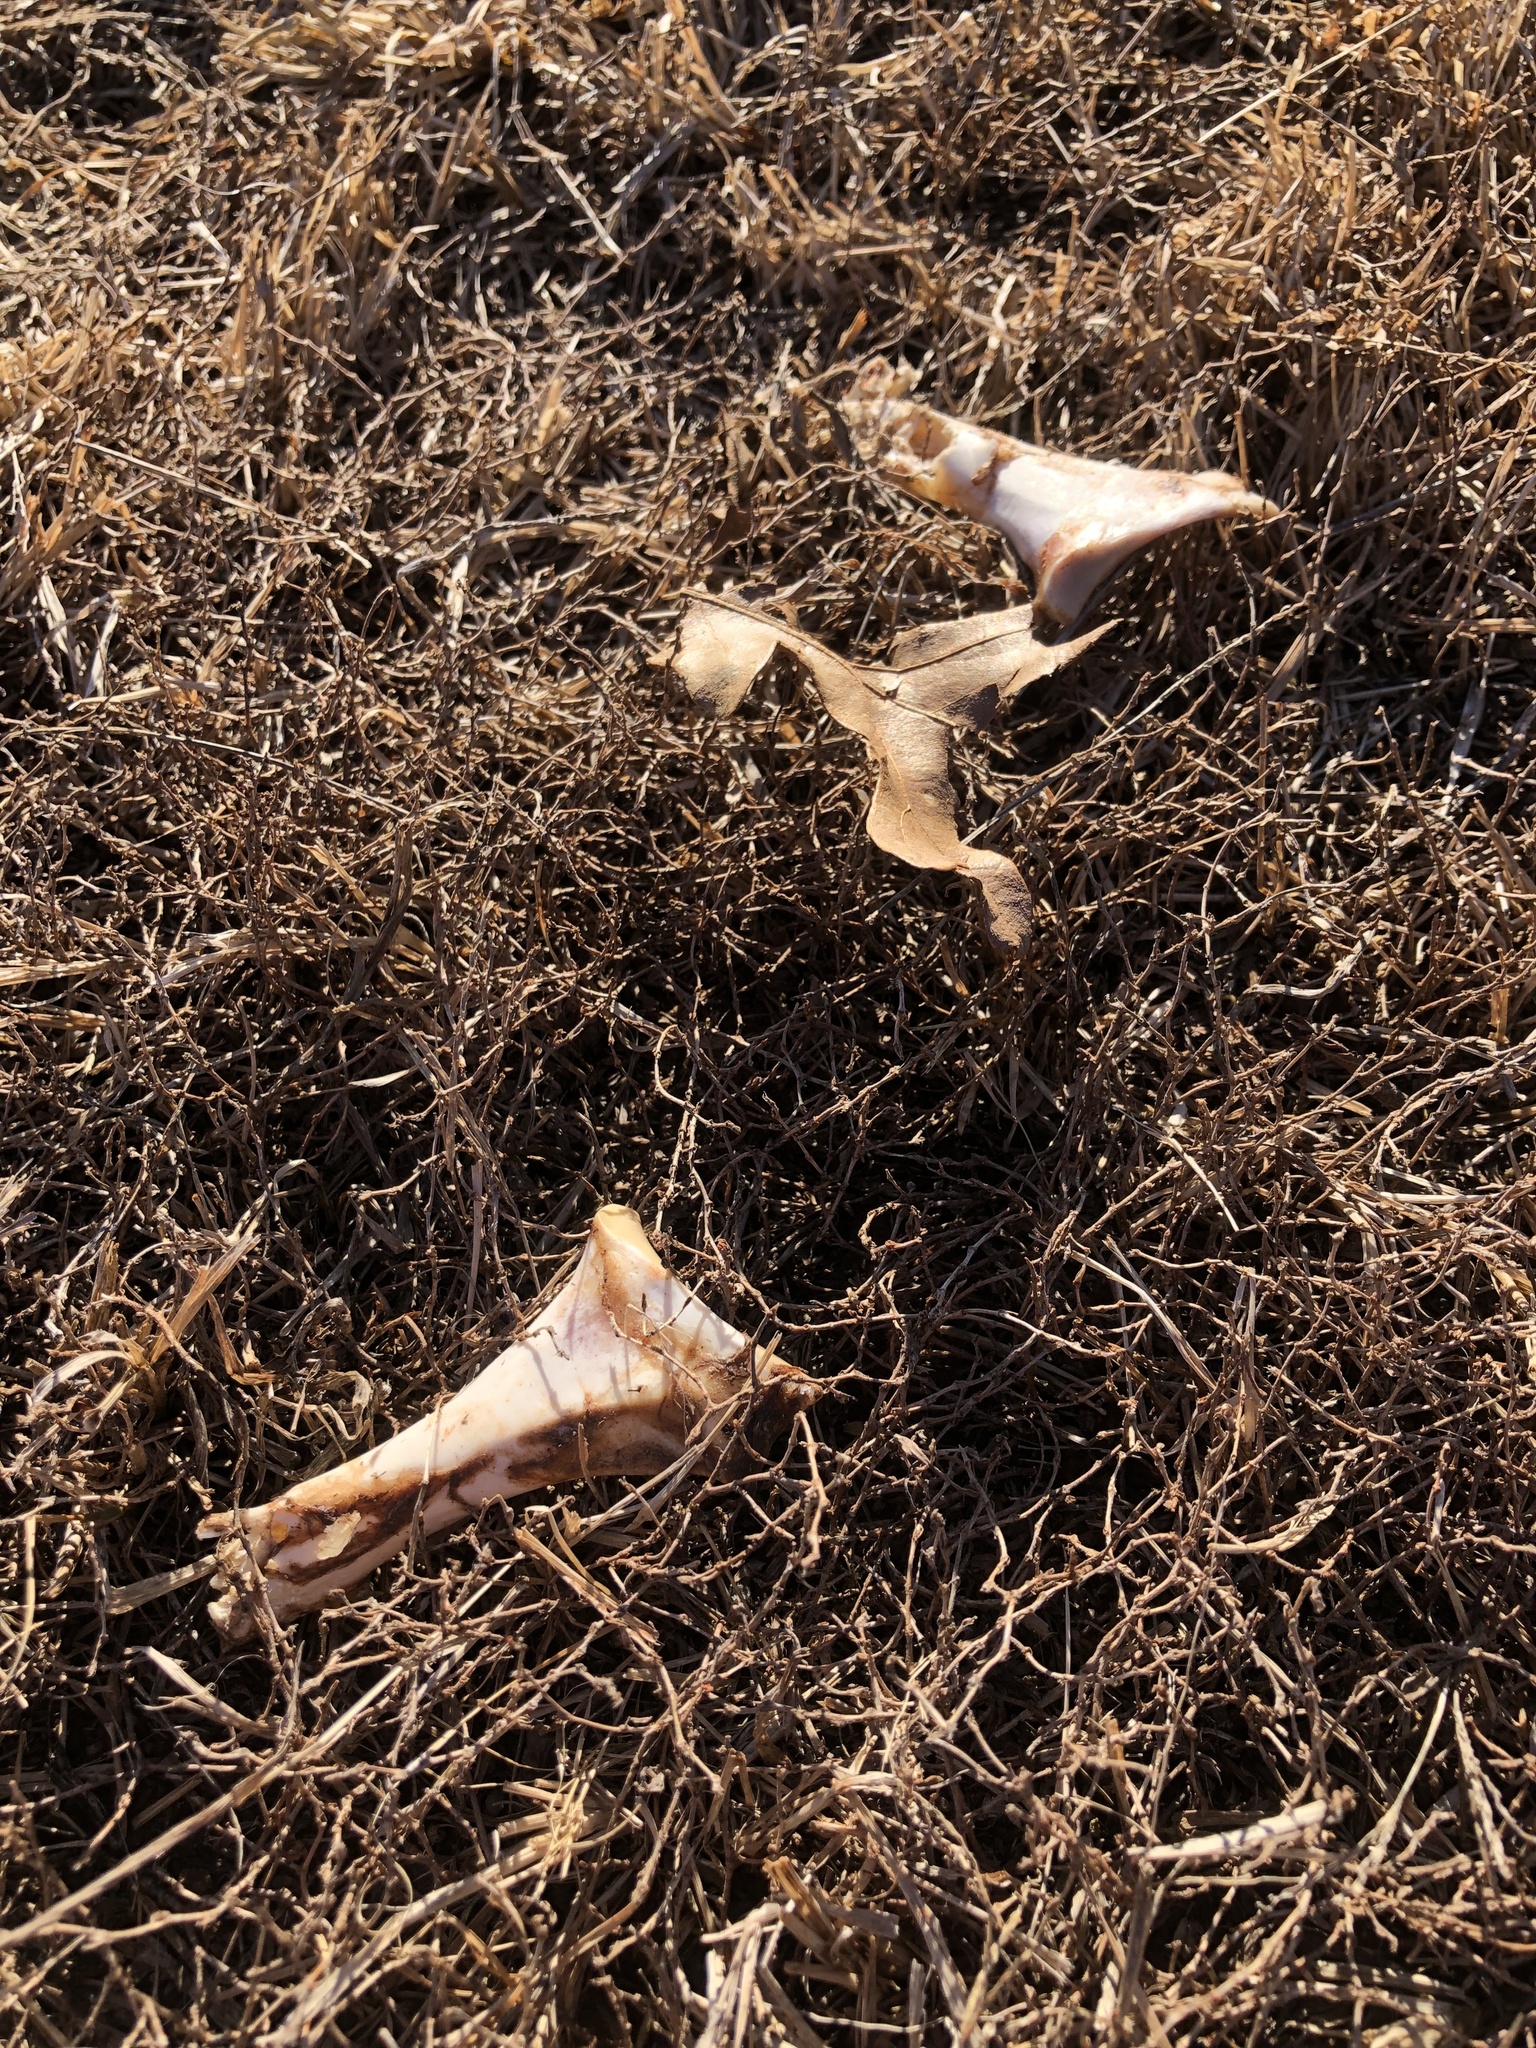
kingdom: Animalia
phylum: Chordata
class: Aves
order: Anseriformes
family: Anatidae
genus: Branta
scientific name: Branta canadensis
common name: Canada goose
